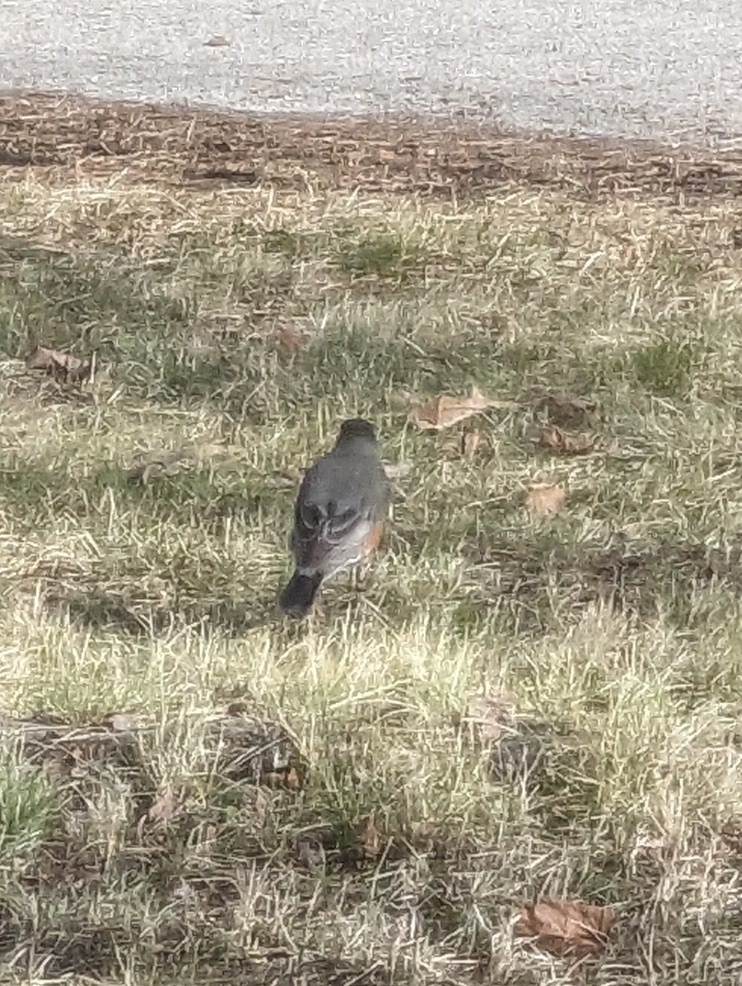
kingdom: Animalia
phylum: Chordata
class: Aves
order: Passeriformes
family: Turdidae
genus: Turdus
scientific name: Turdus migratorius
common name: American robin
